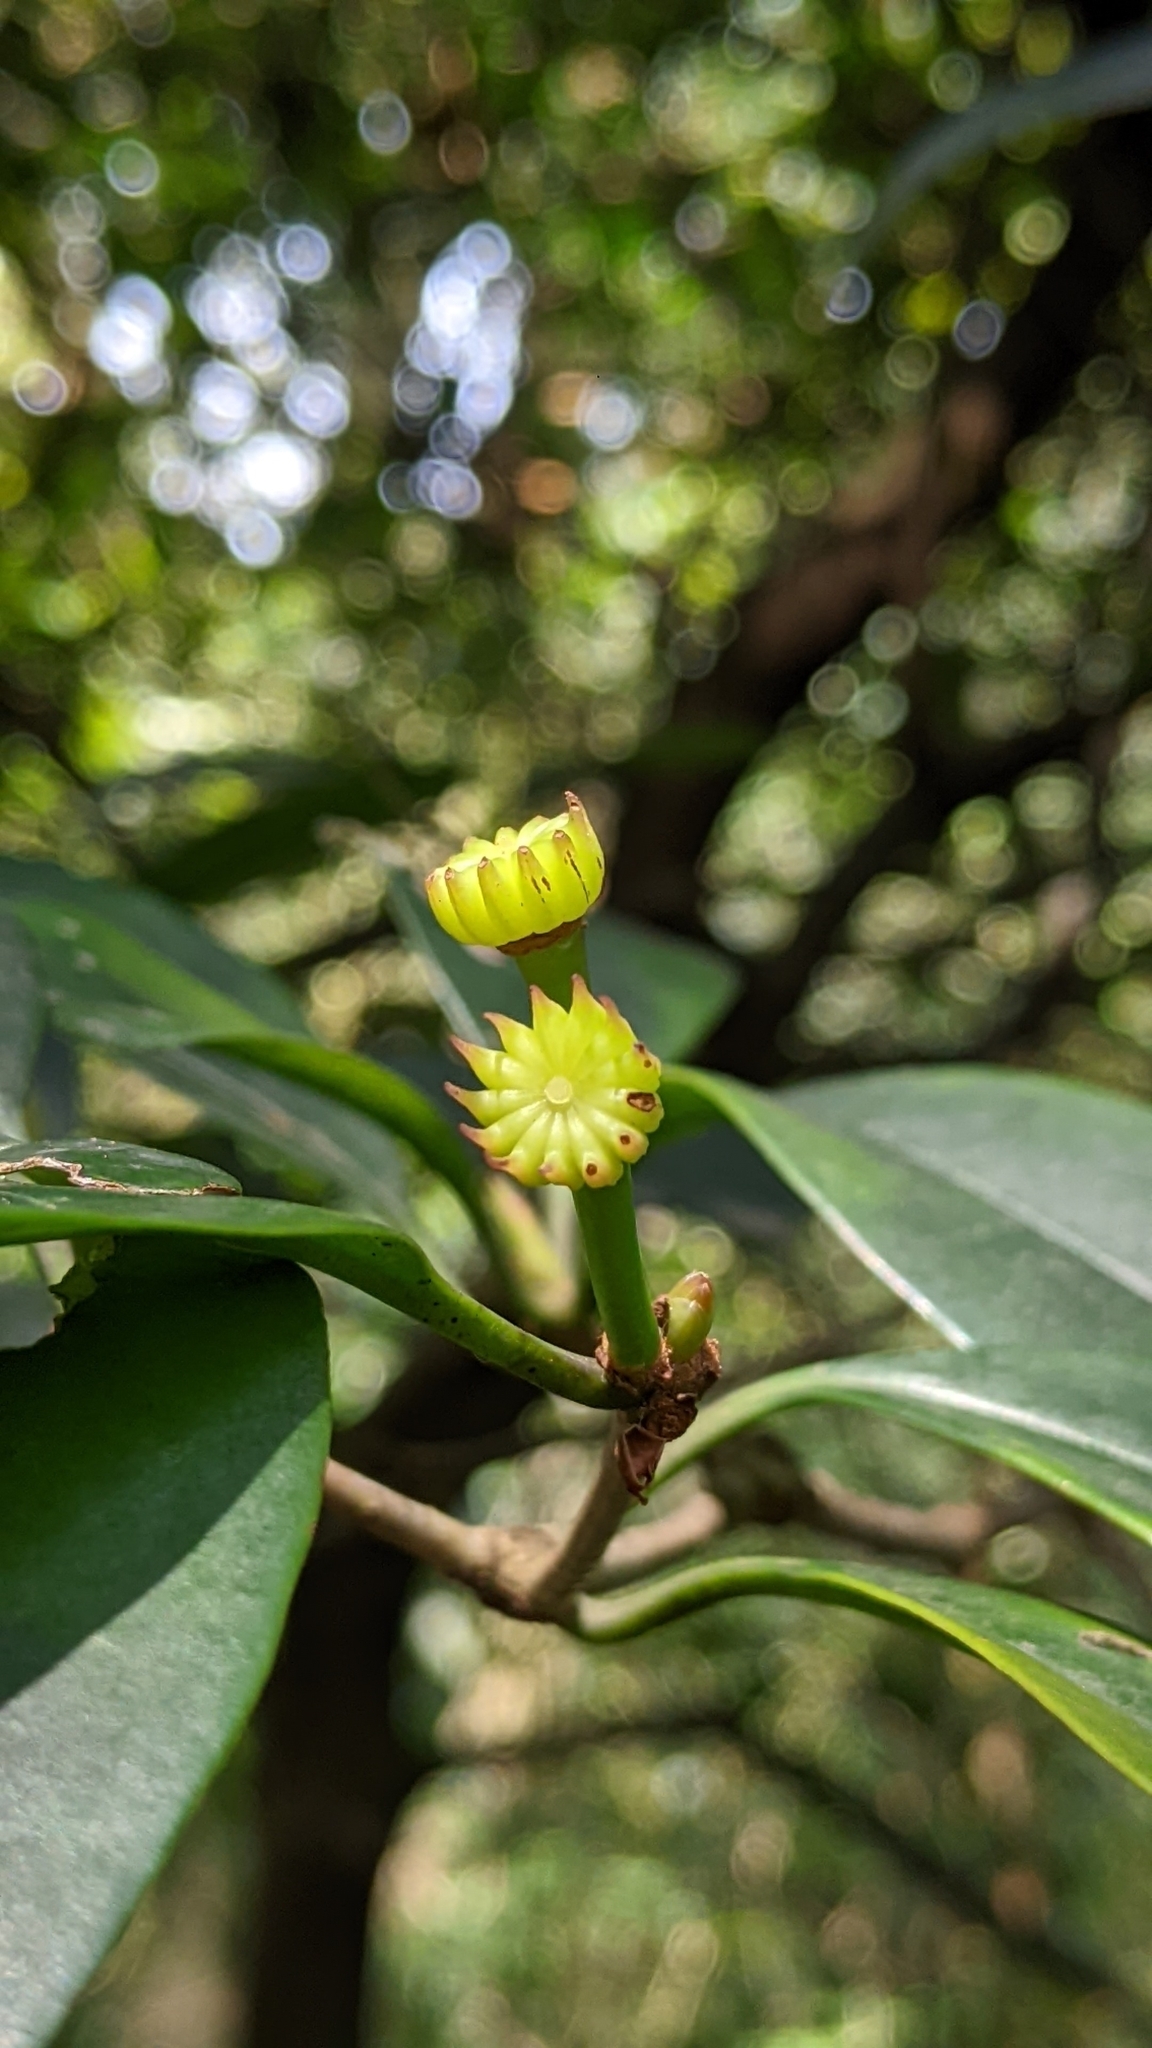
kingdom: Plantae
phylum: Tracheophyta
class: Magnoliopsida
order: Austrobaileyales
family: Schisandraceae
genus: Illicium
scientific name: Illicium arborescens
